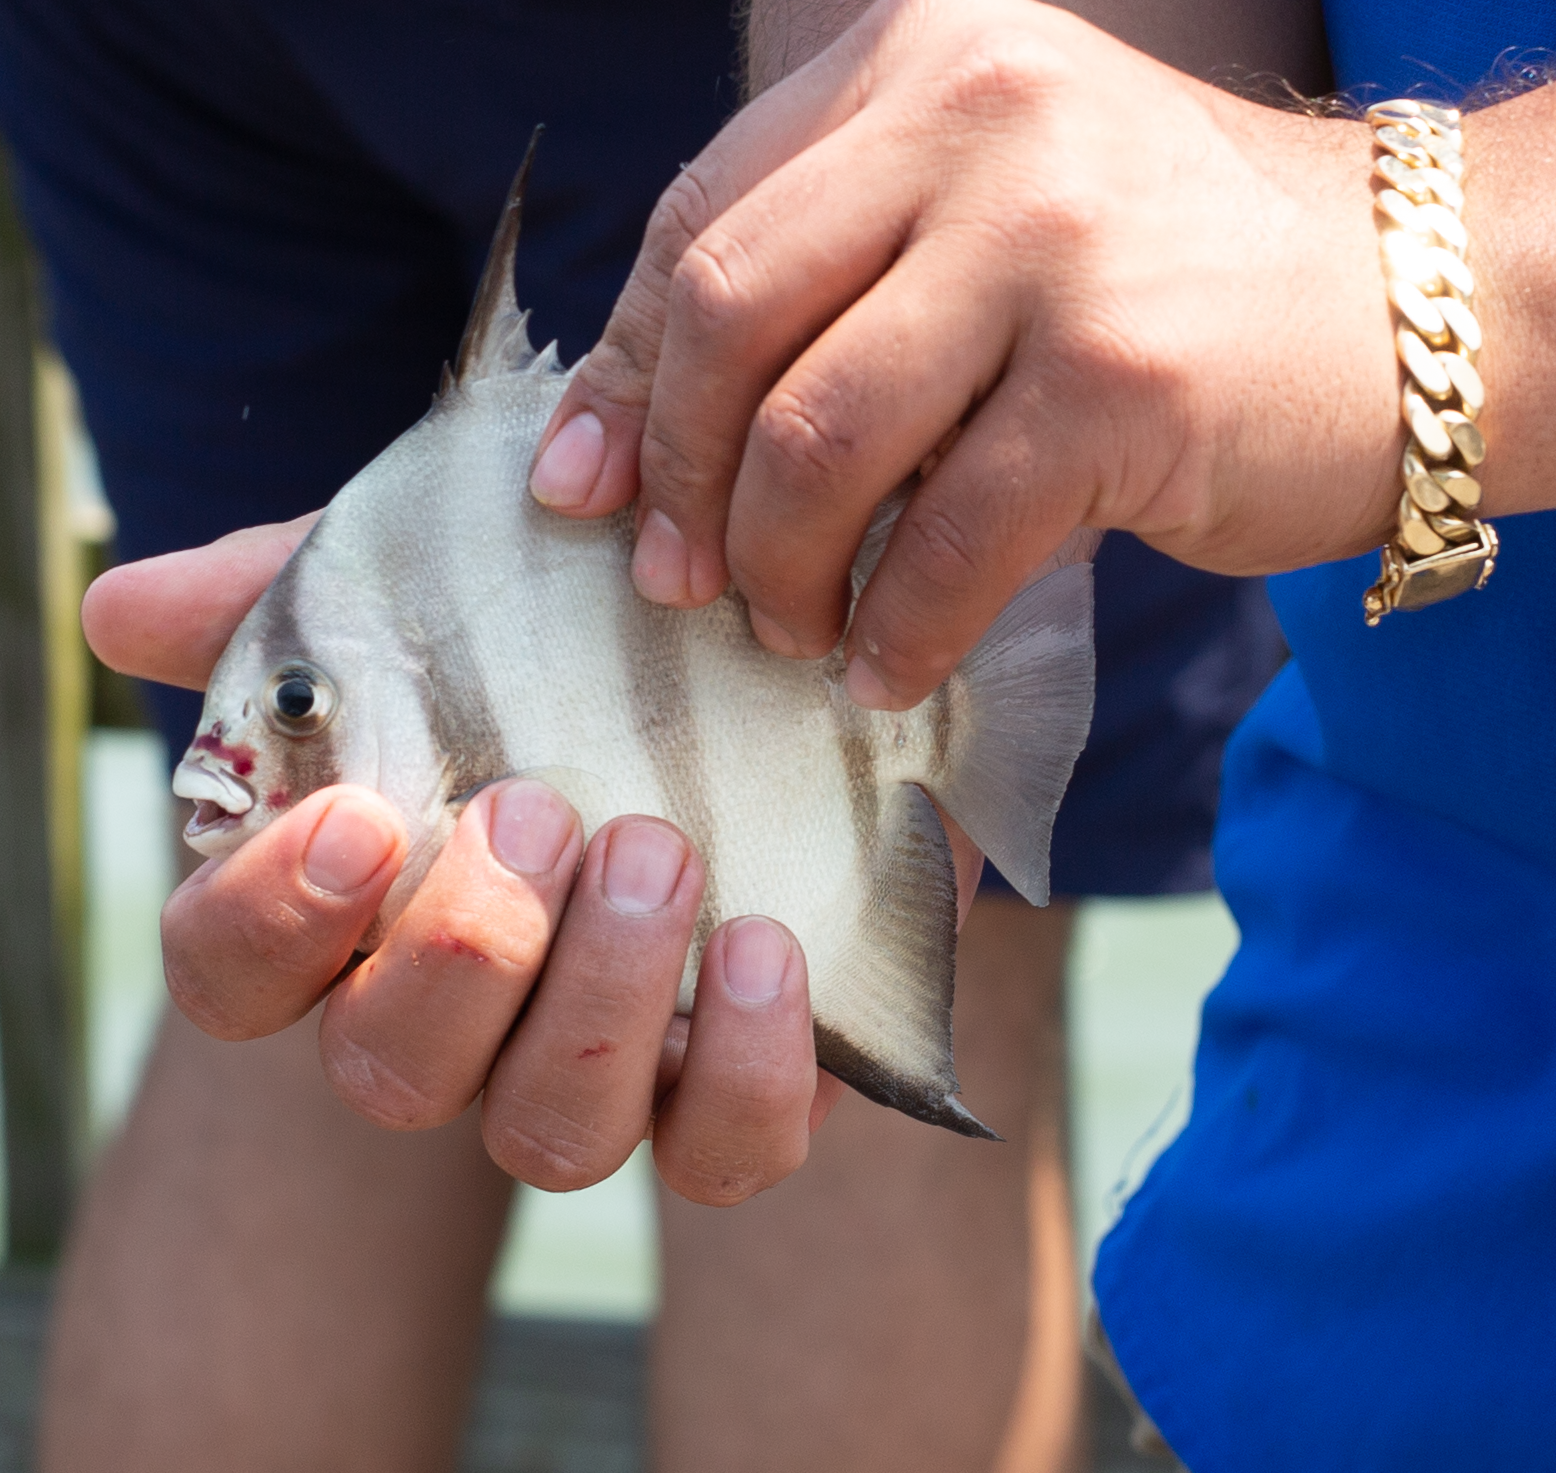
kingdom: Animalia
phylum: Chordata
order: Perciformes
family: Ephippidae
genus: Chaetodipterus
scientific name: Chaetodipterus faber
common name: Ocean cobbler
